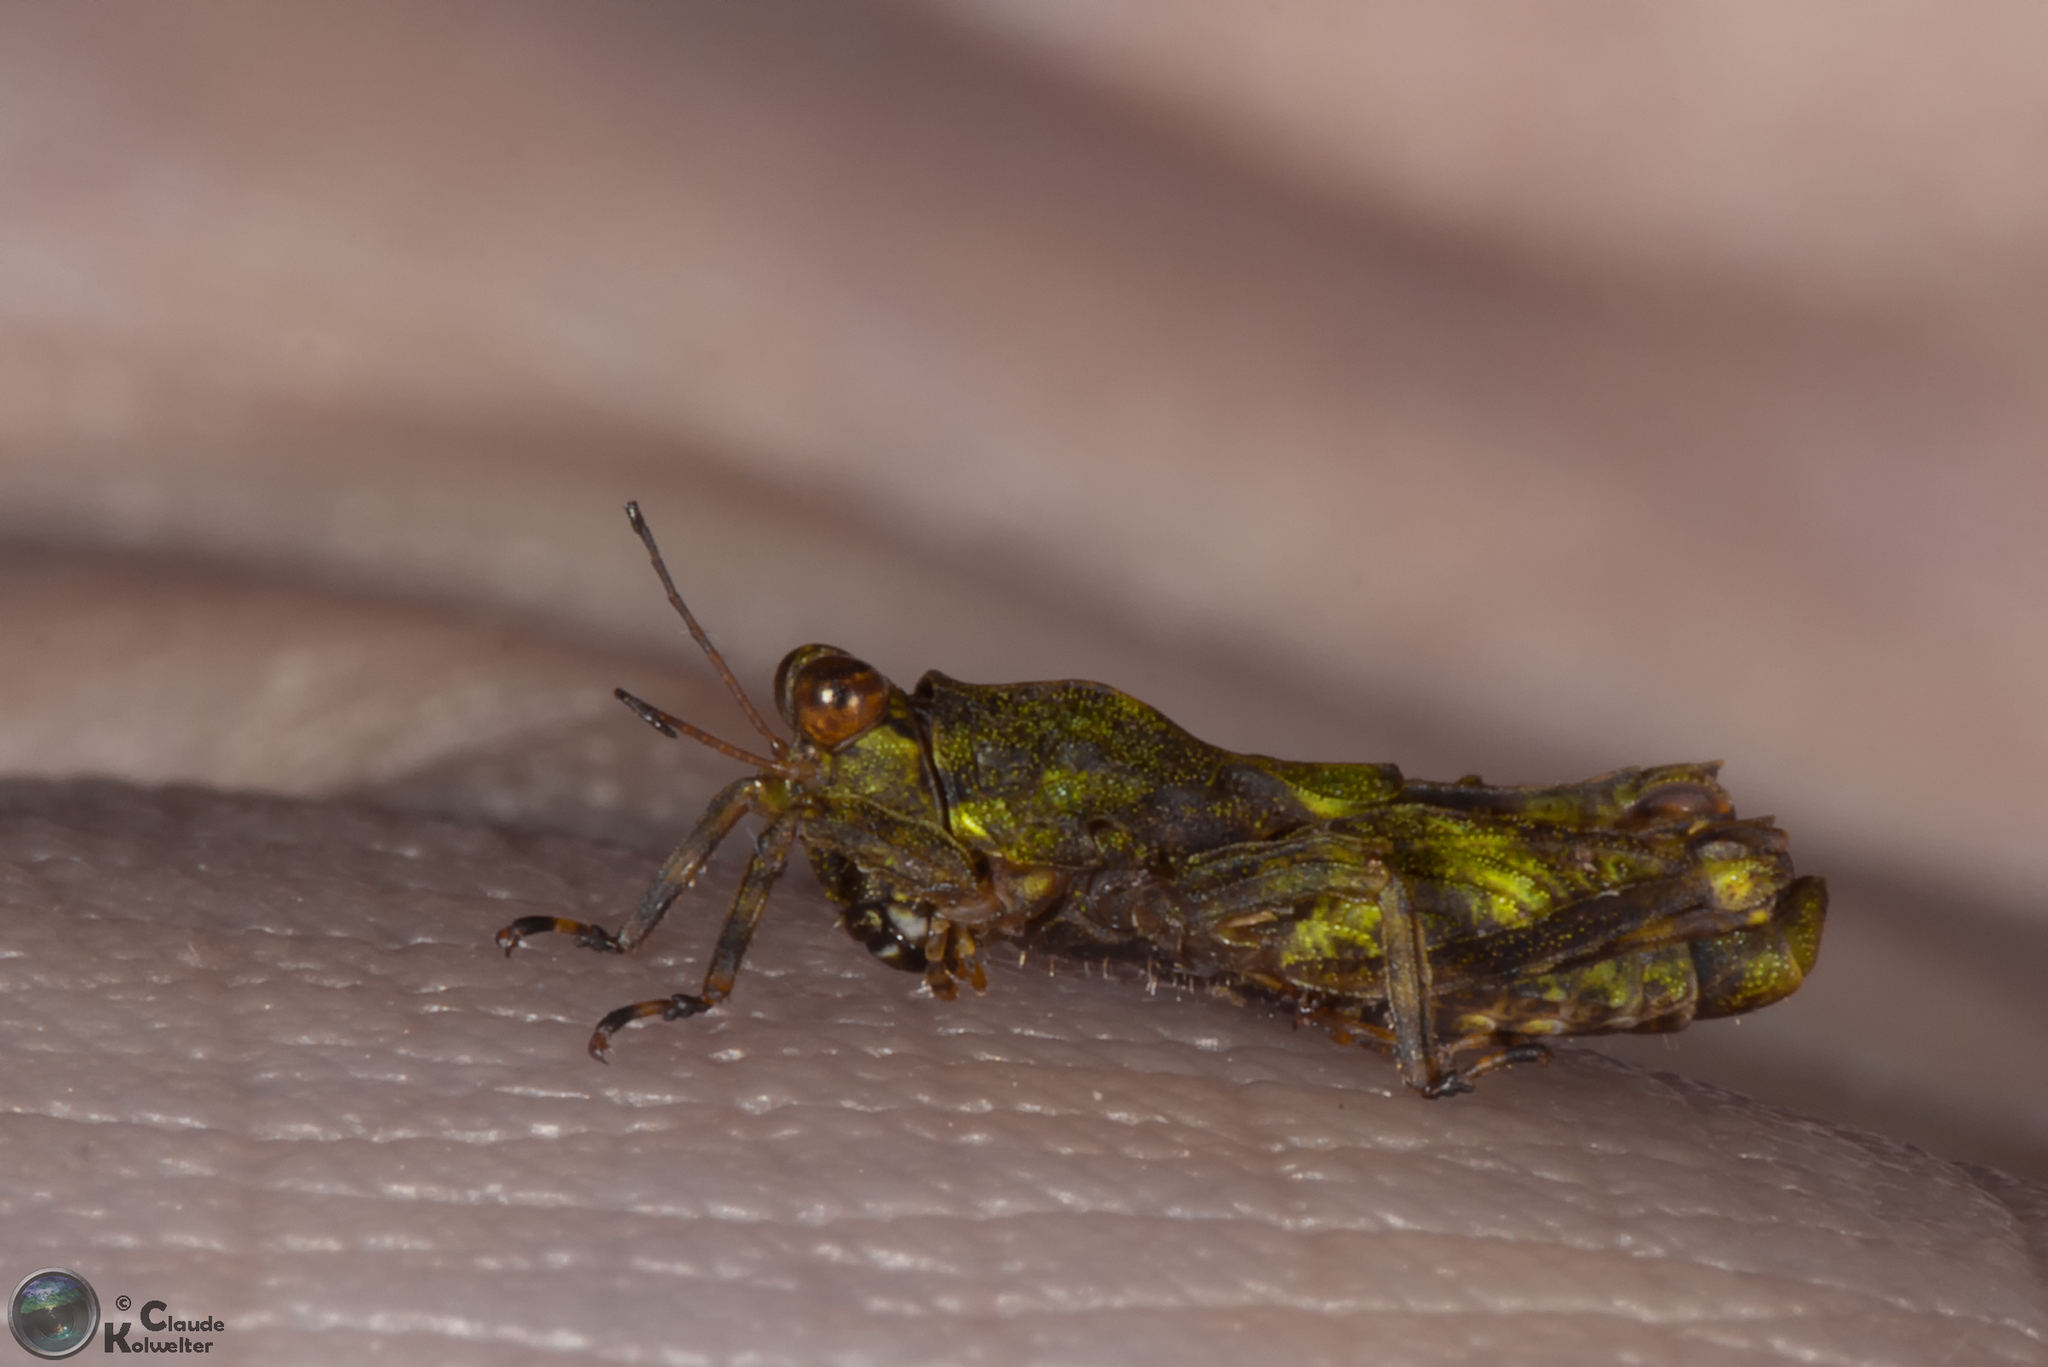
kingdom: Animalia
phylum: Arthropoda
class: Insecta
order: Orthoptera
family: Tetrigidae
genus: Amphinotus
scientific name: Amphinotus nymphula
